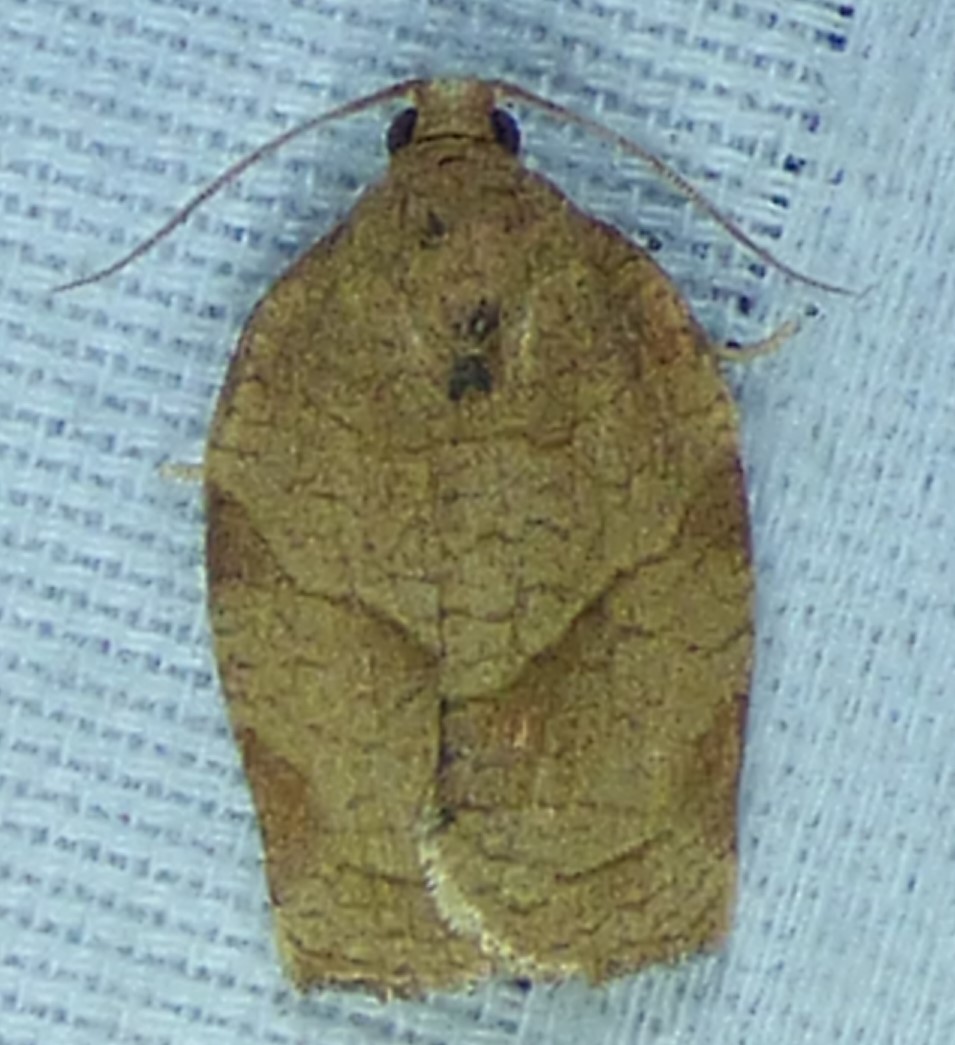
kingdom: Animalia
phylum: Arthropoda
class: Insecta
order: Lepidoptera
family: Tortricidae
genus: Choristoneura
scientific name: Choristoneura rosaceana
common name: Oblique-banded leafroller moth
